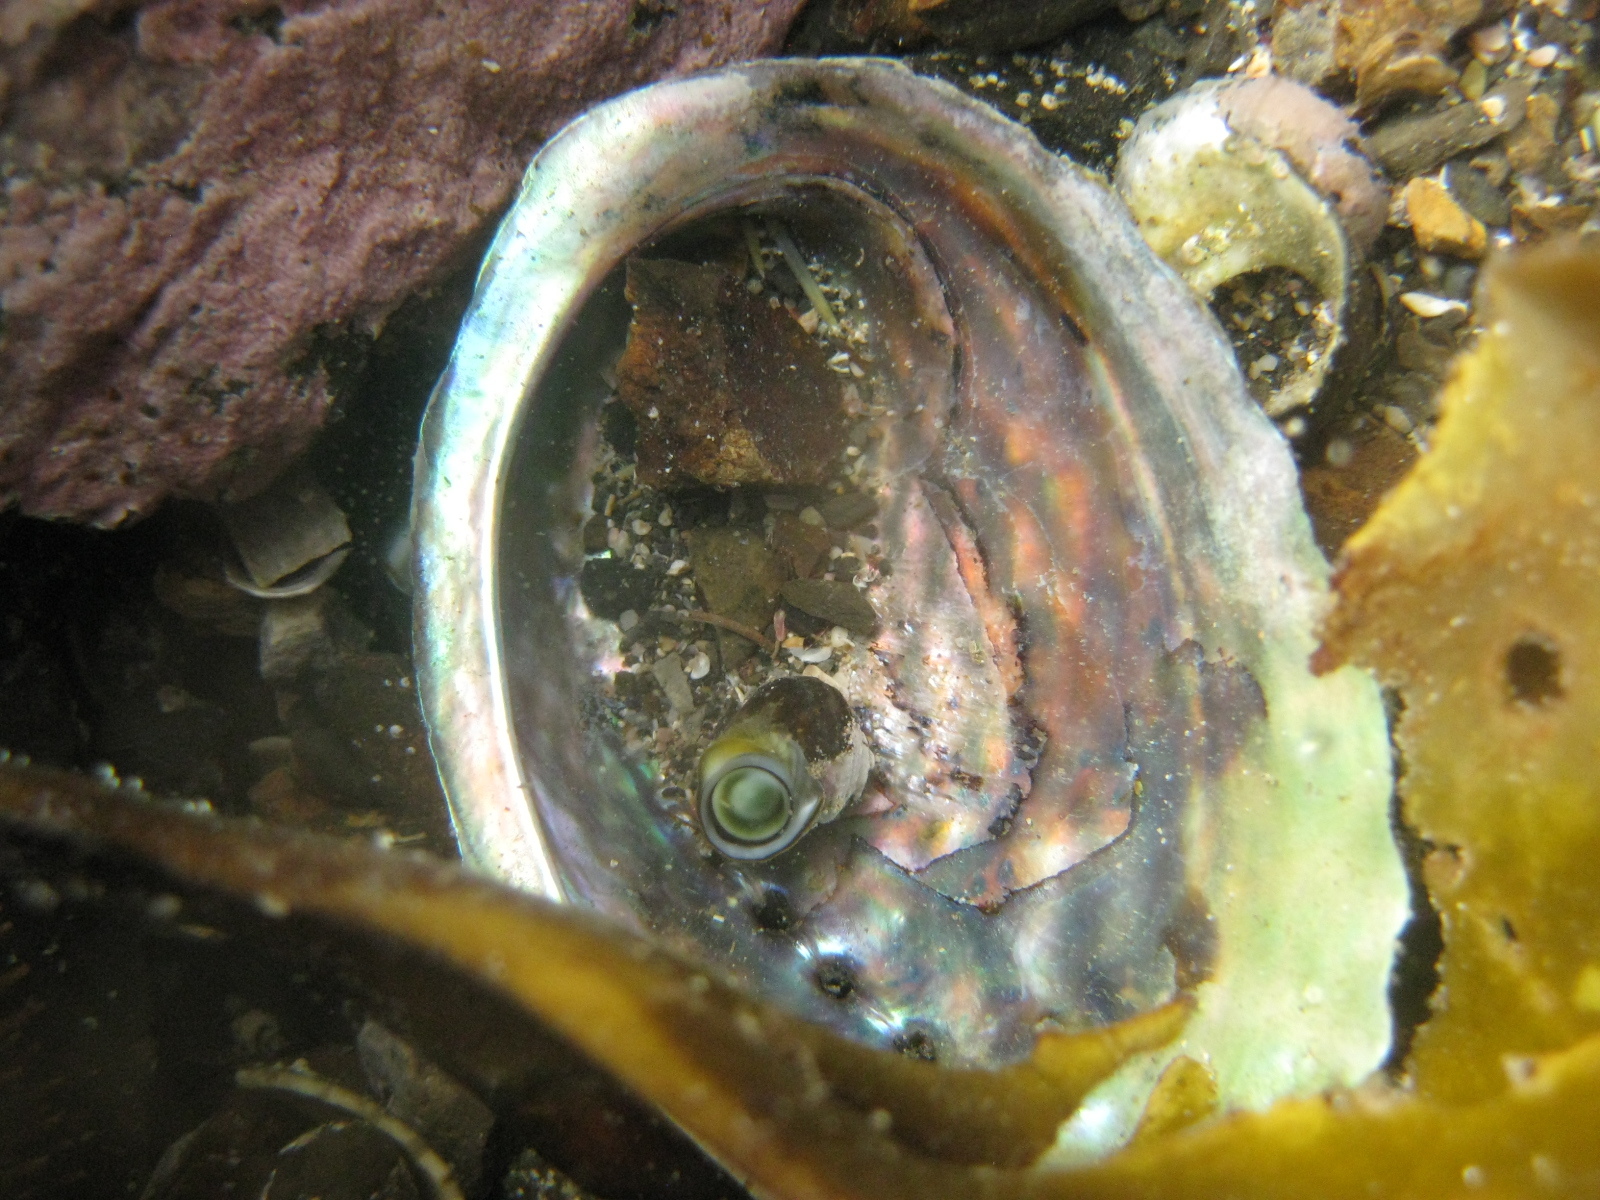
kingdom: Animalia
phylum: Mollusca
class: Gastropoda
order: Lepetellida
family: Haliotidae
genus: Haliotis
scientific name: Haliotis iris
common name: Abalone
